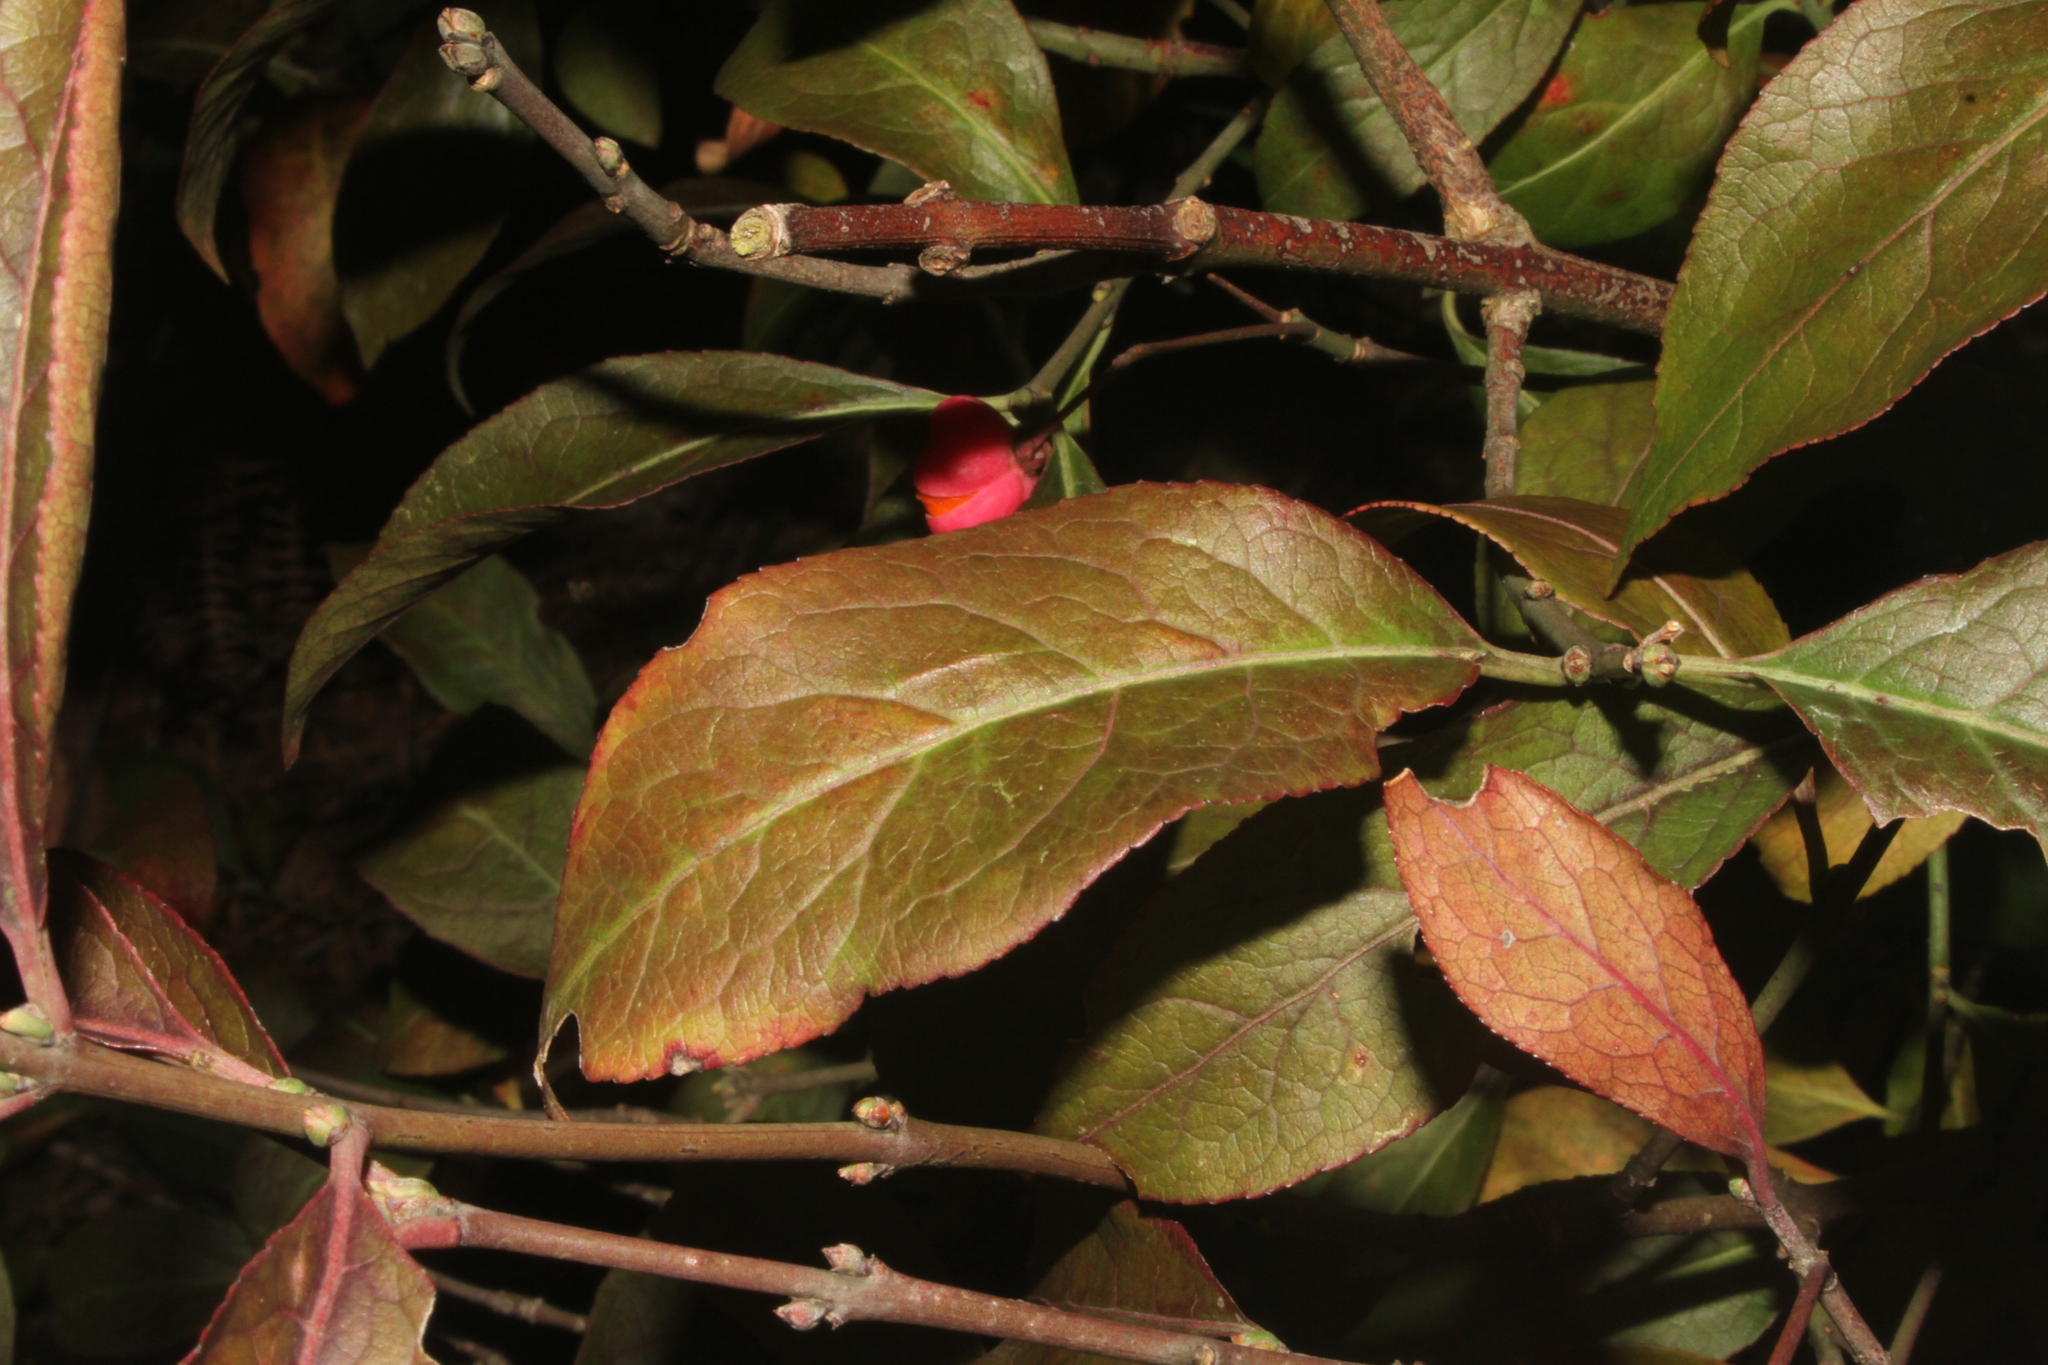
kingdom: Plantae
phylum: Tracheophyta
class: Magnoliopsida
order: Celastrales
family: Celastraceae
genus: Euonymus
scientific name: Euonymus europaeus
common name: Spindle
